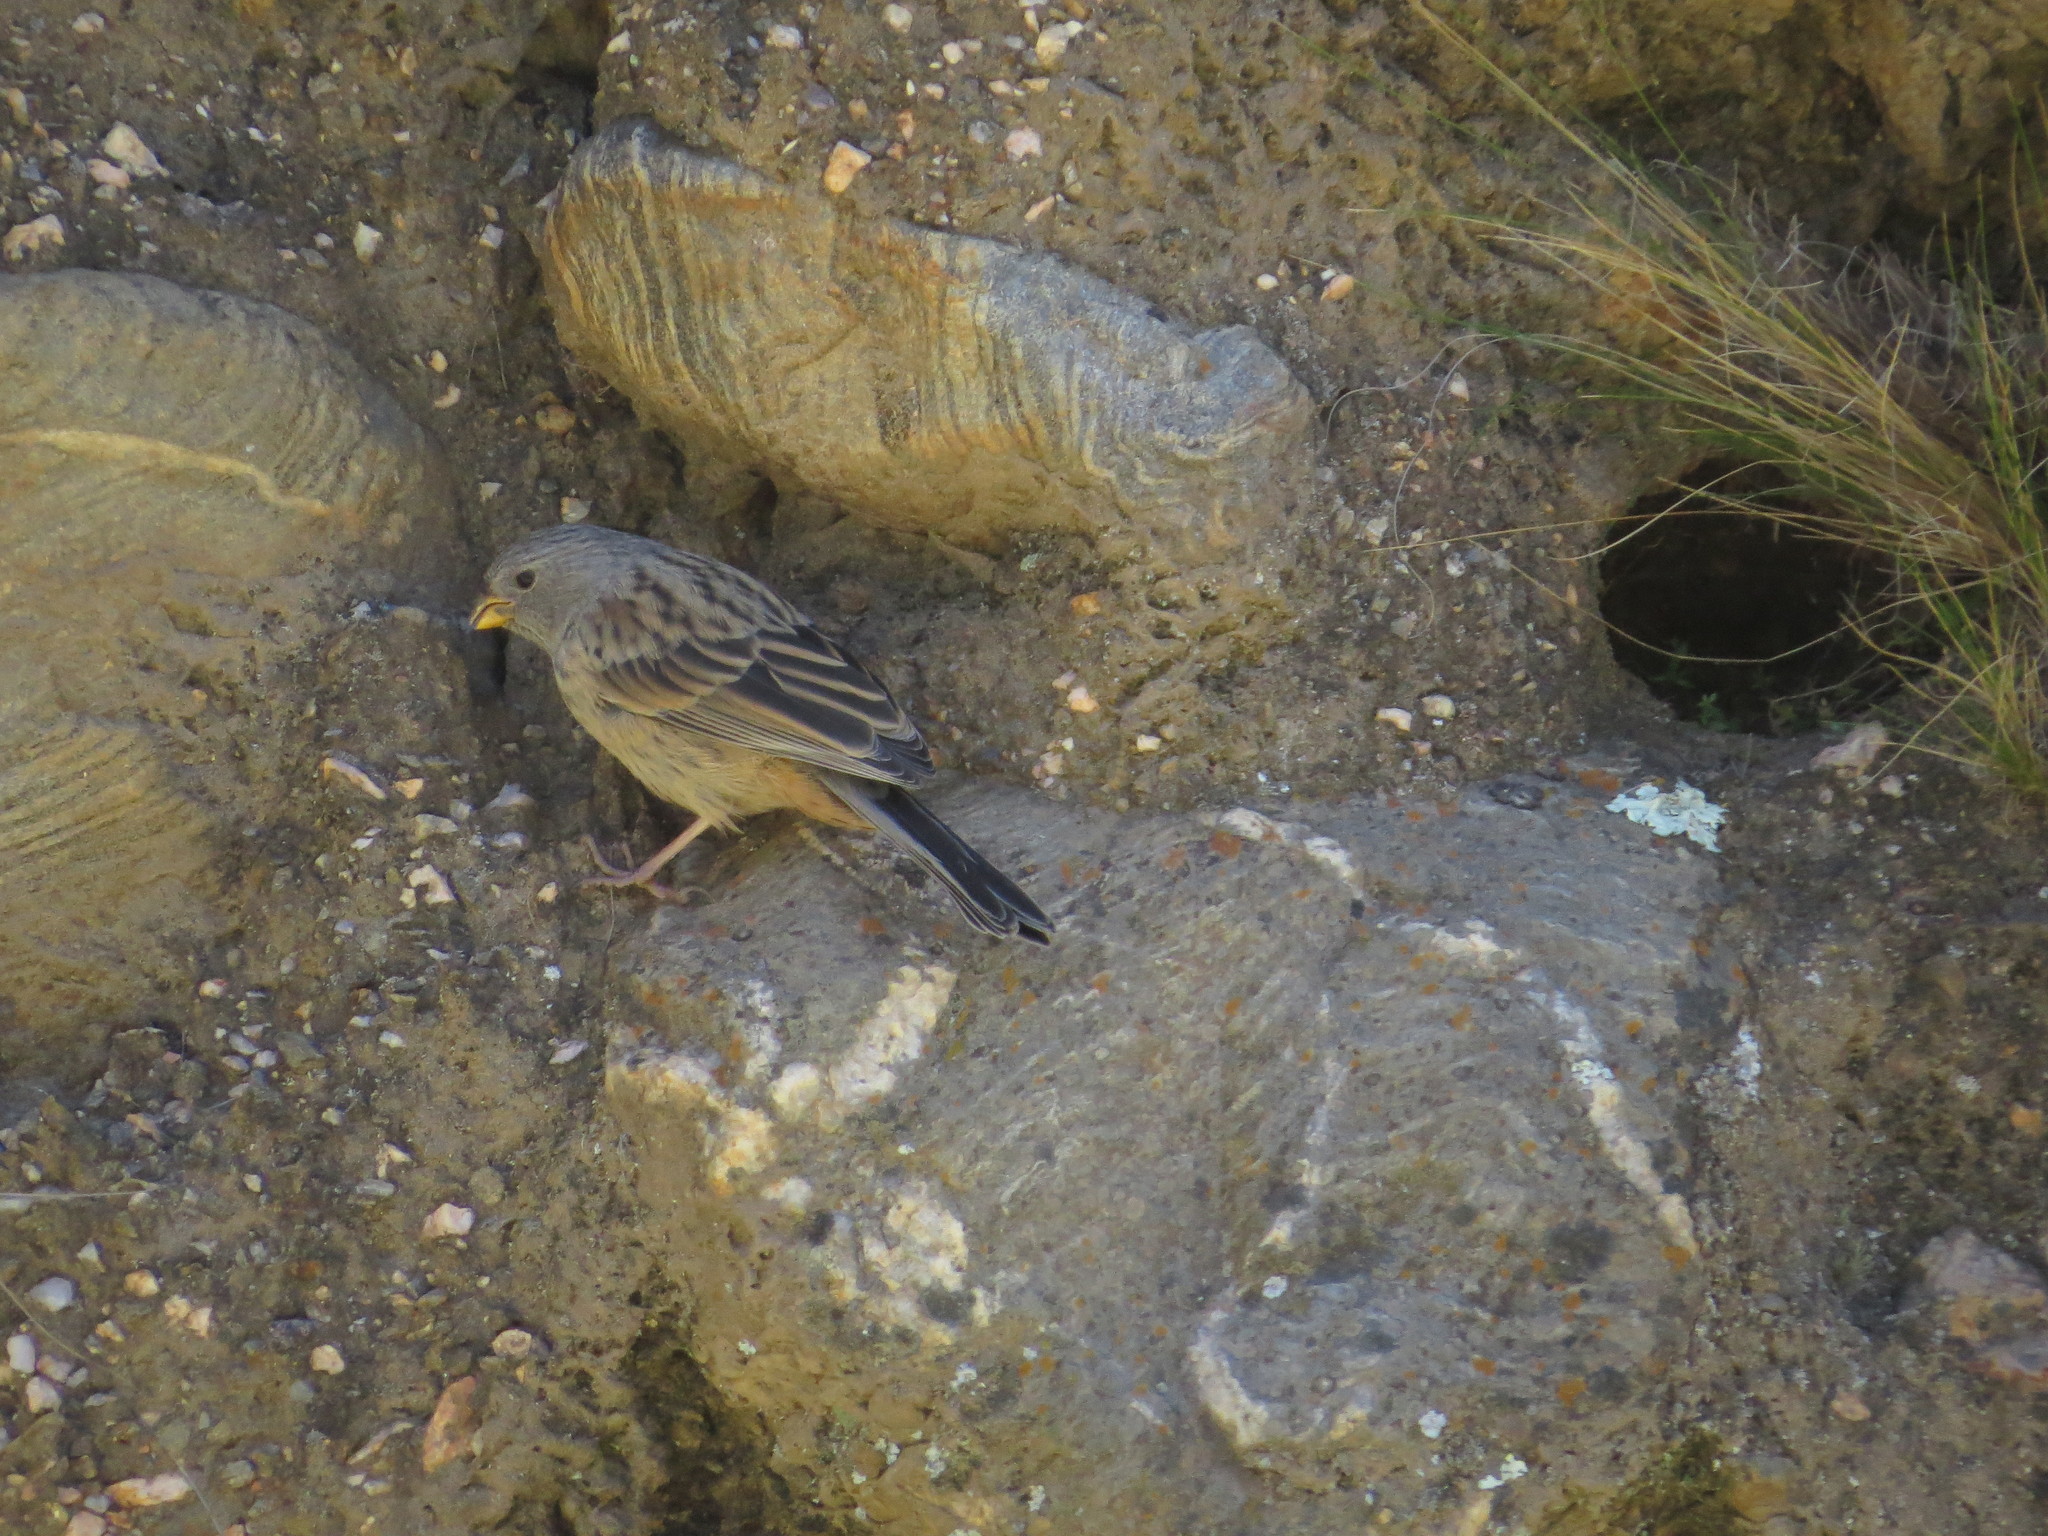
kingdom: Animalia
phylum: Chordata
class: Aves
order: Passeriformes
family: Thraupidae
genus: Catamenia
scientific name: Catamenia analis
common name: Band-tailed seedeater
